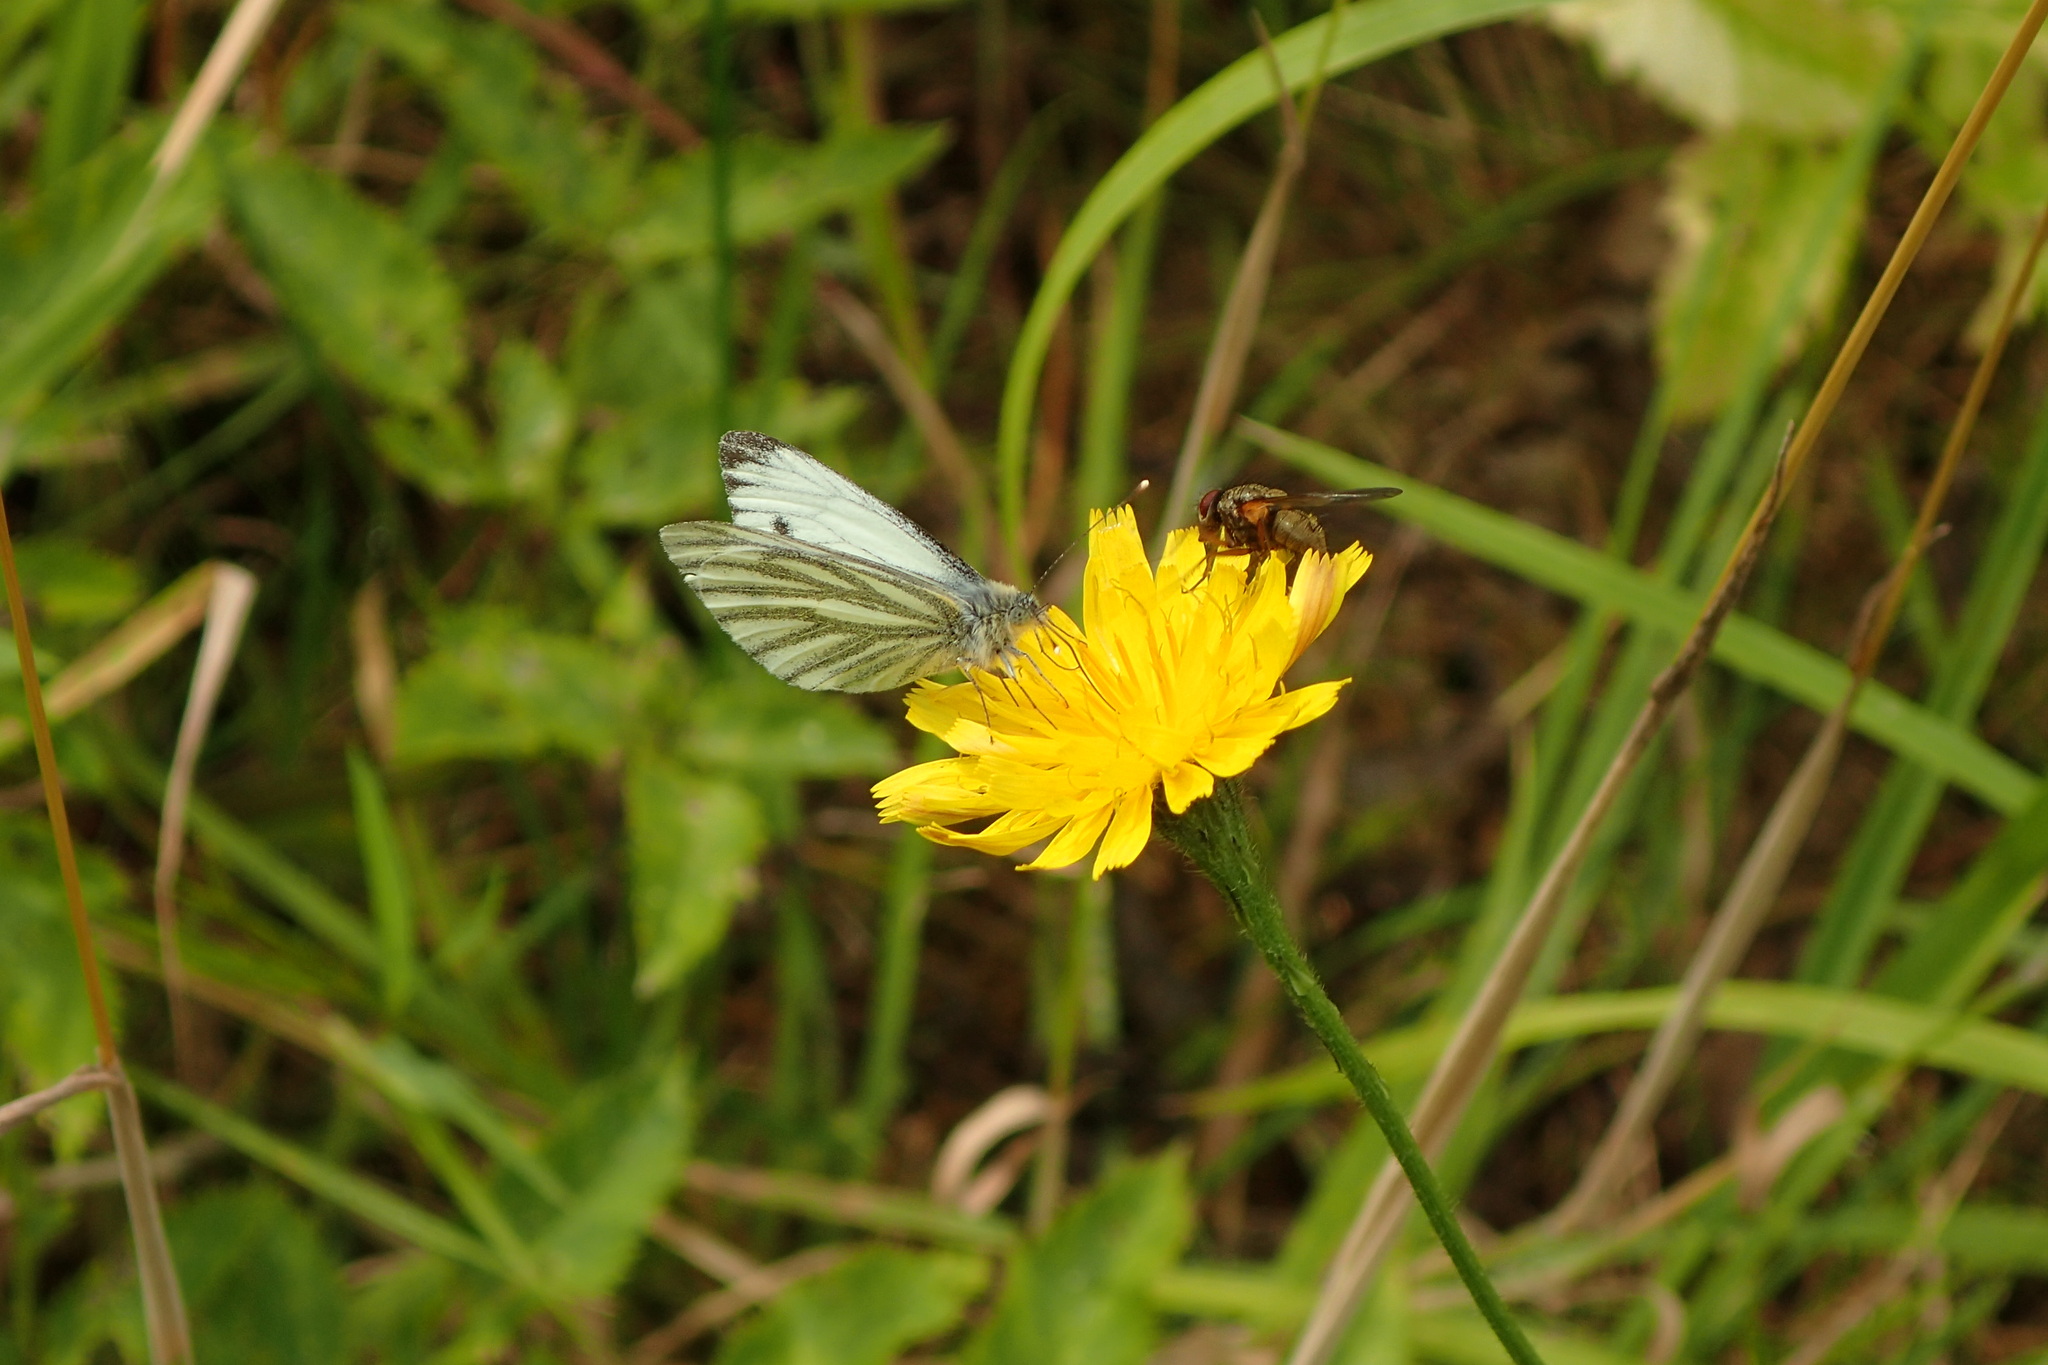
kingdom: Animalia
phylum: Arthropoda
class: Insecta
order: Lepidoptera
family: Pieridae
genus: Pieris
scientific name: Pieris napi
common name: Green-veined white
